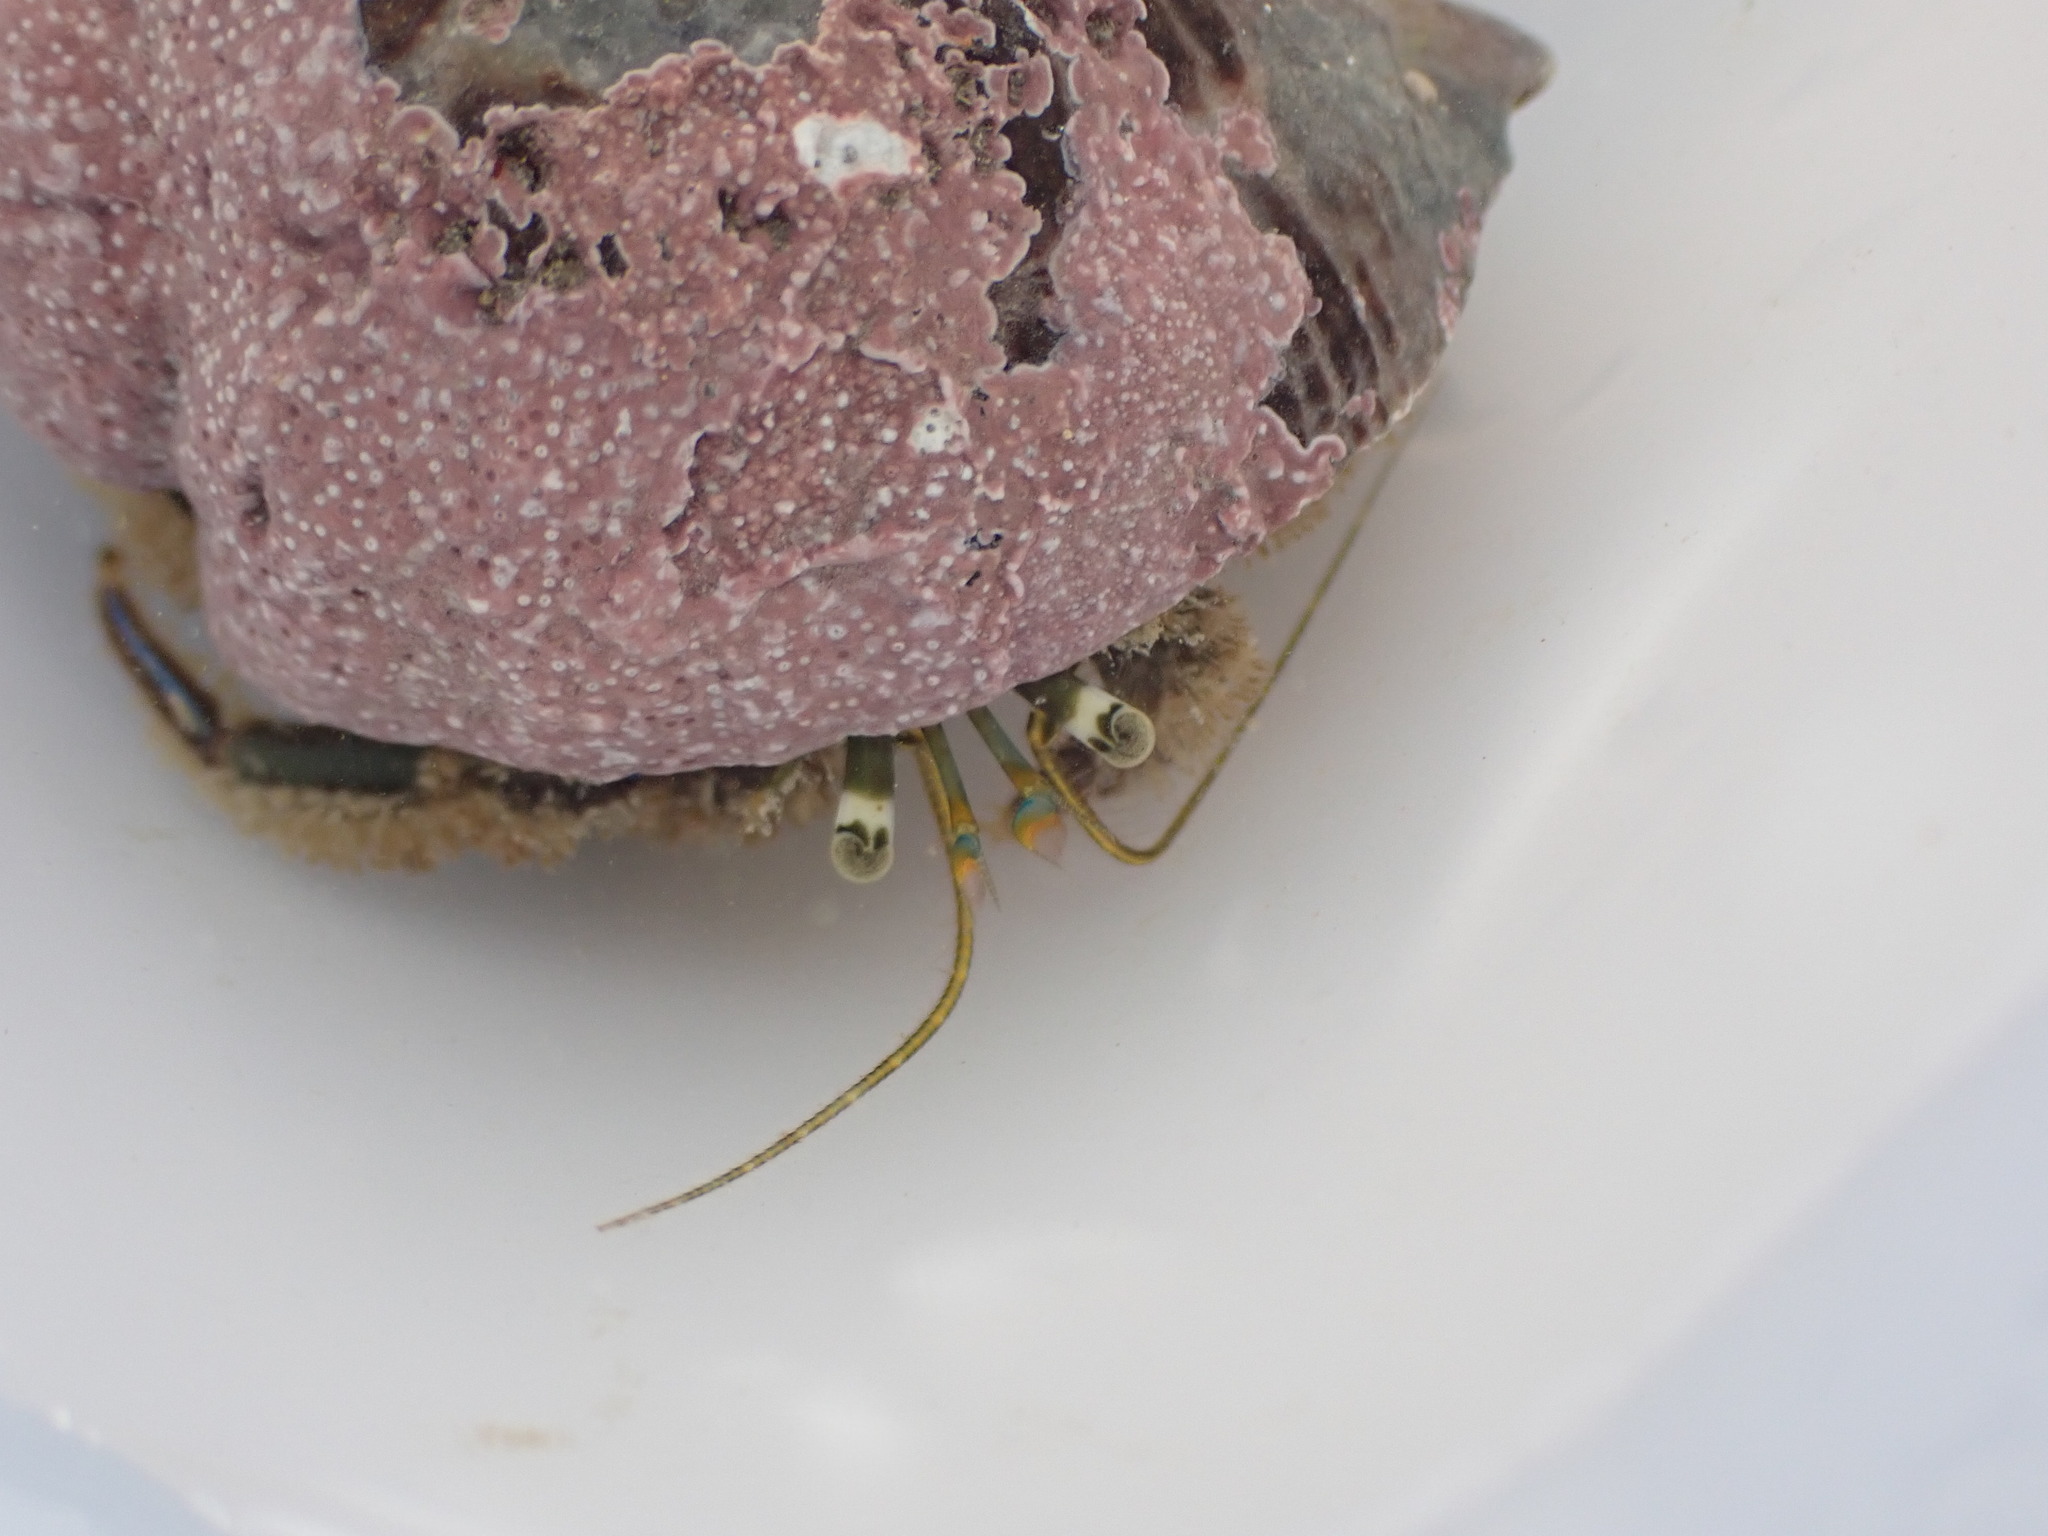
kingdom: Animalia
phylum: Arthropoda
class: Malacostraca
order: Decapoda
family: Paguridae
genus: Pagurus
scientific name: Pagurus novizealandiae
